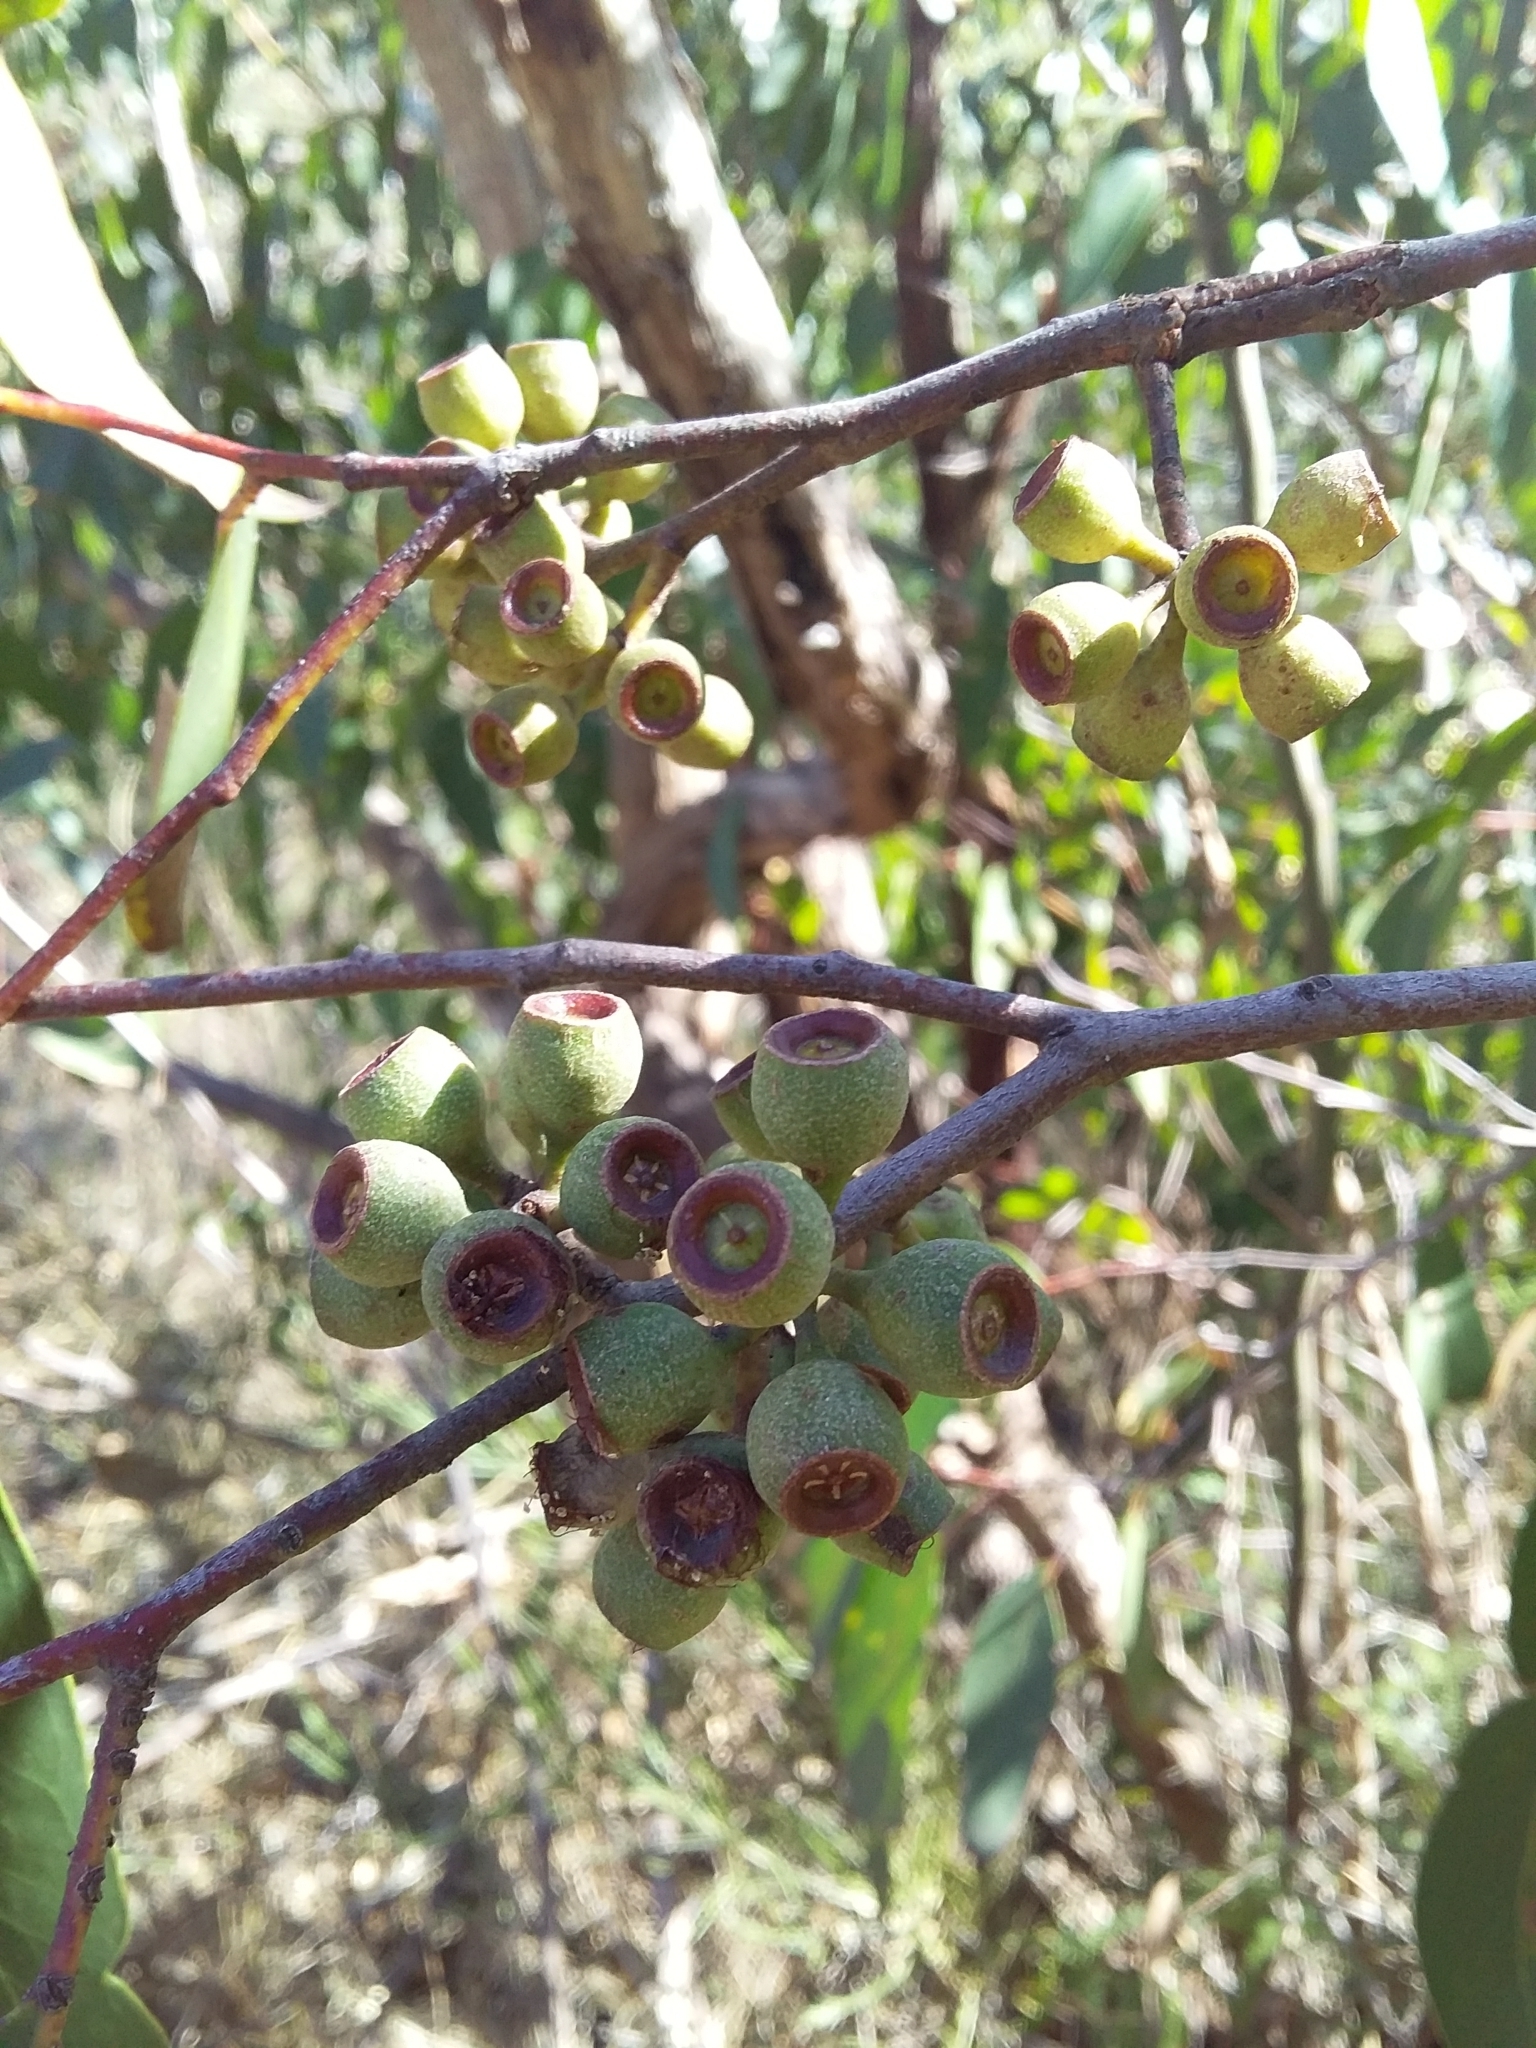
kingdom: Plantae
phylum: Tracheophyta
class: Magnoliopsida
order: Myrtales
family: Myrtaceae
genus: Eucalyptus
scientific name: Eucalyptus obliqua
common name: Messmate stringybark
